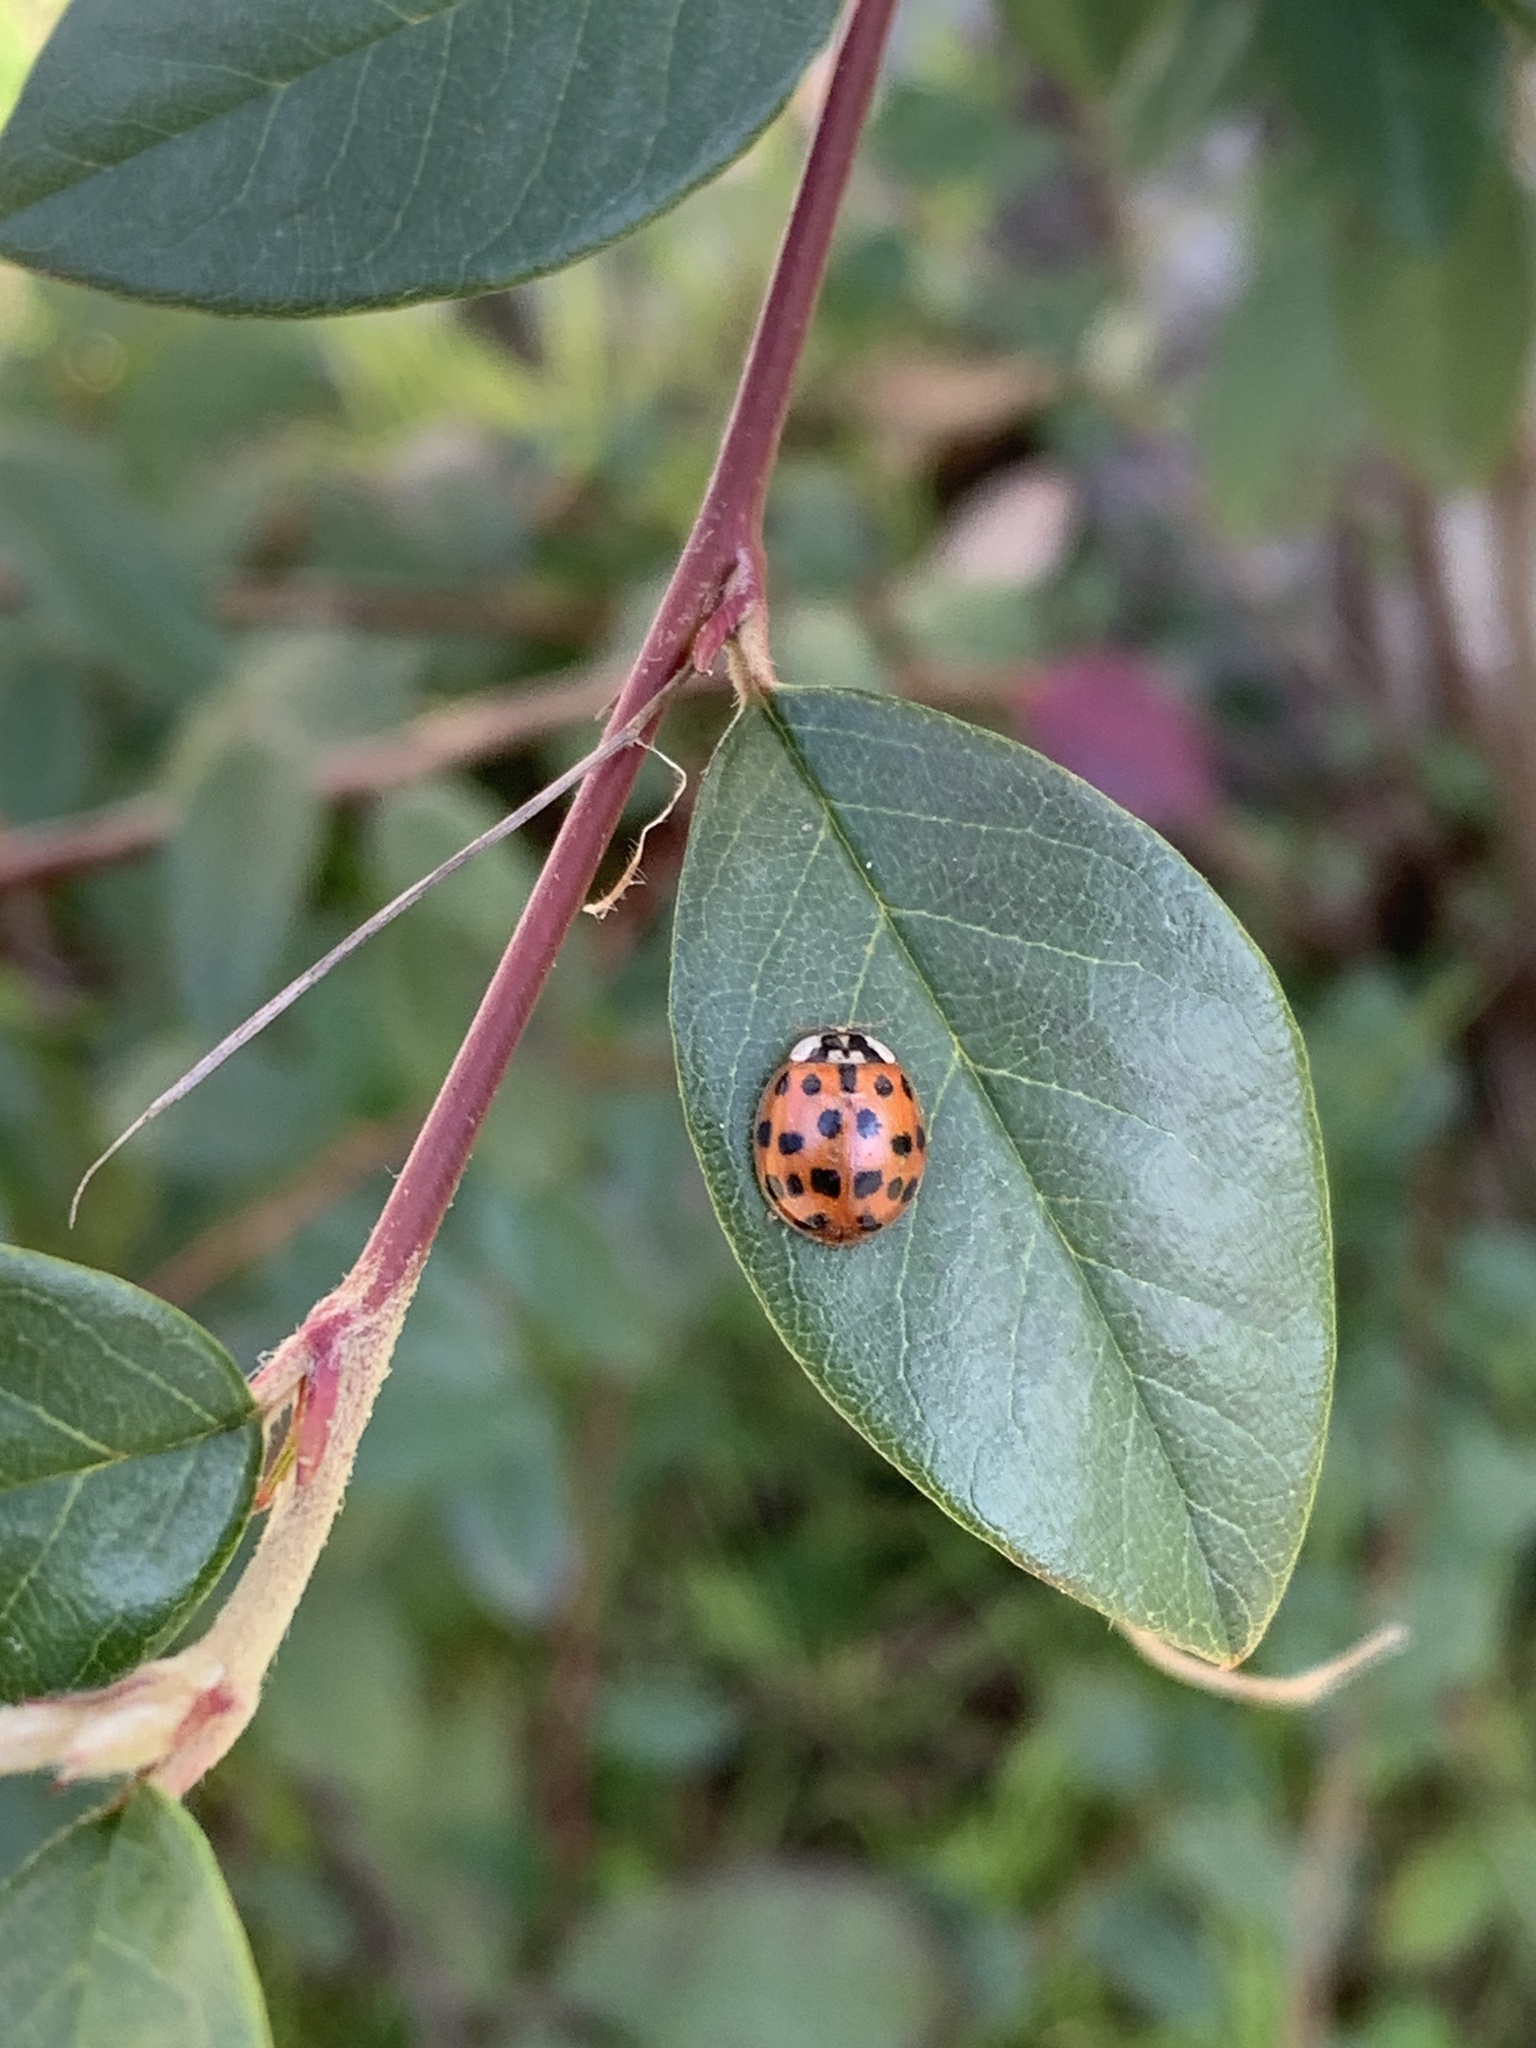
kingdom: Animalia
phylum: Arthropoda
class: Insecta
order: Coleoptera
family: Coccinellidae
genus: Harmonia
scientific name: Harmonia axyridis
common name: Harlequin ladybird
